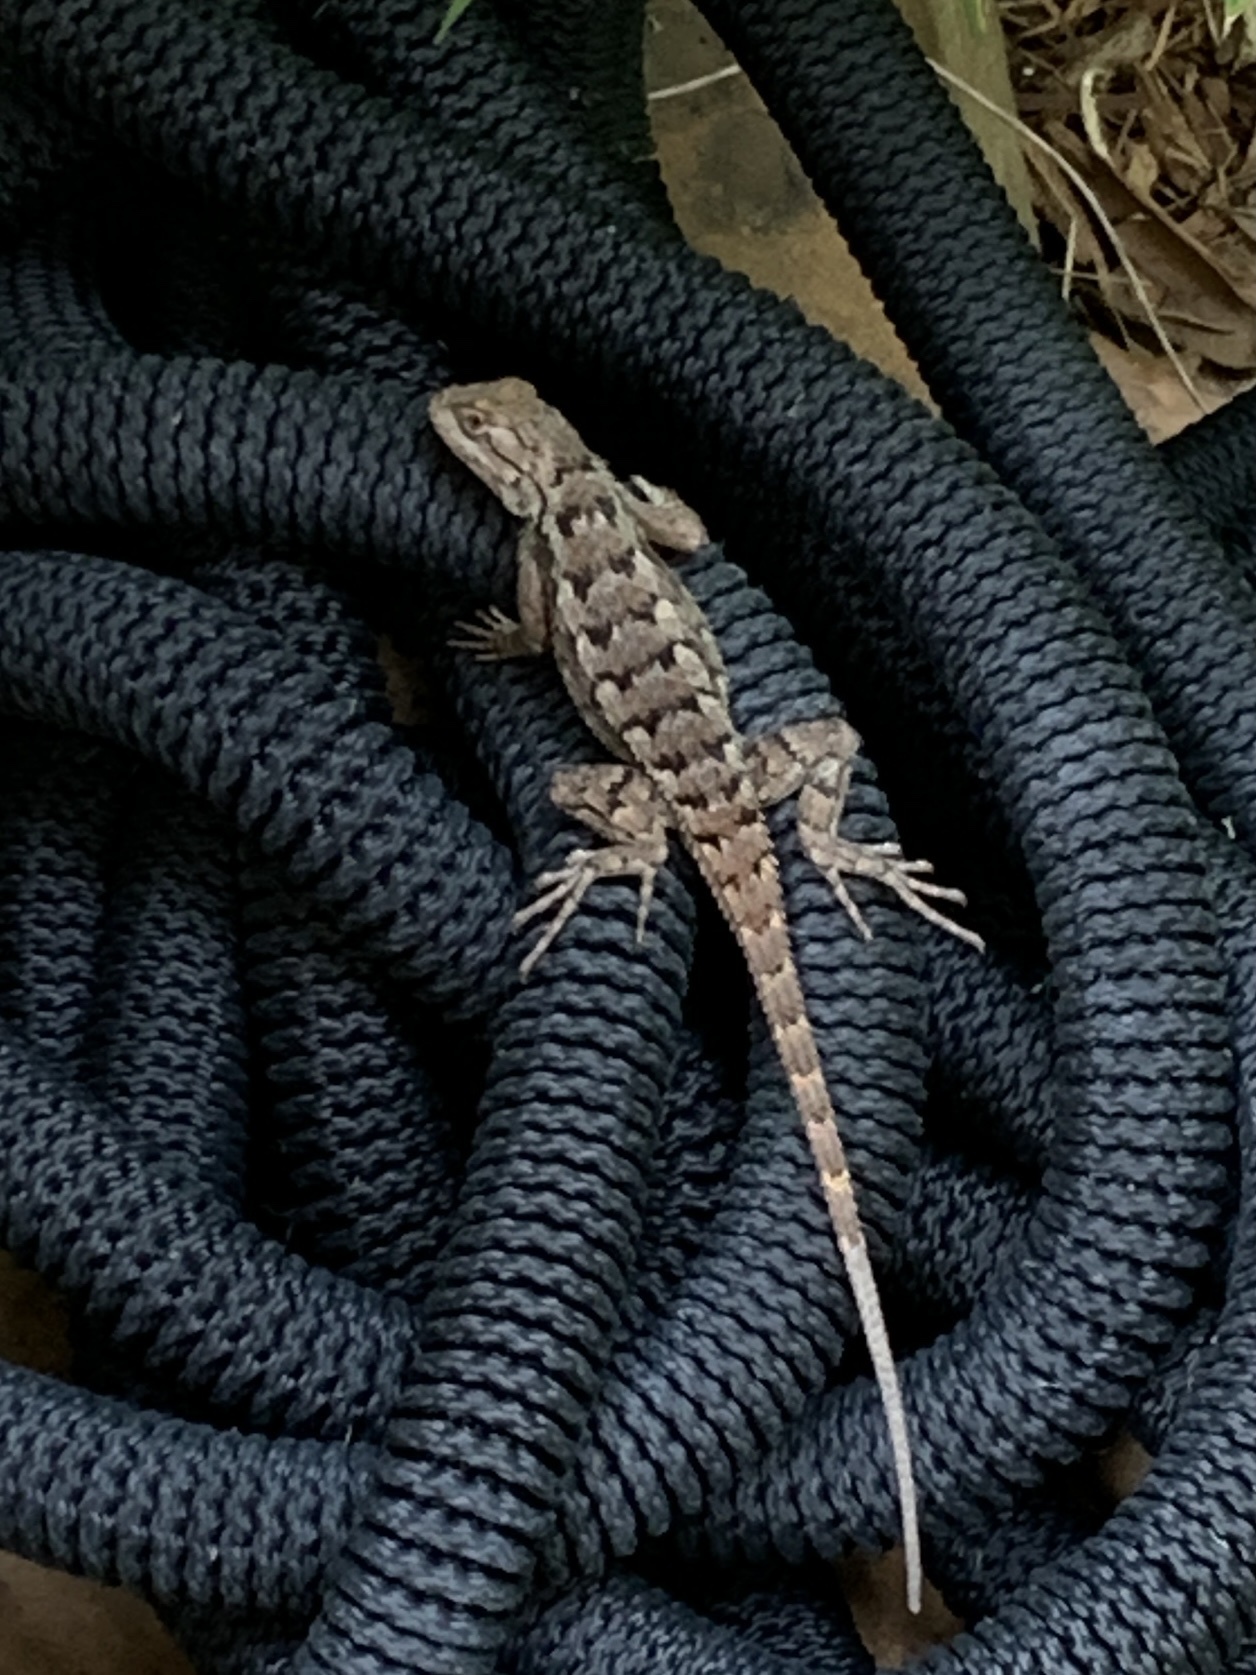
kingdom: Animalia
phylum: Chordata
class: Squamata
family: Phrynosomatidae
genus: Sceloporus
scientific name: Sceloporus olivaceus
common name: Texas spiny lizard
